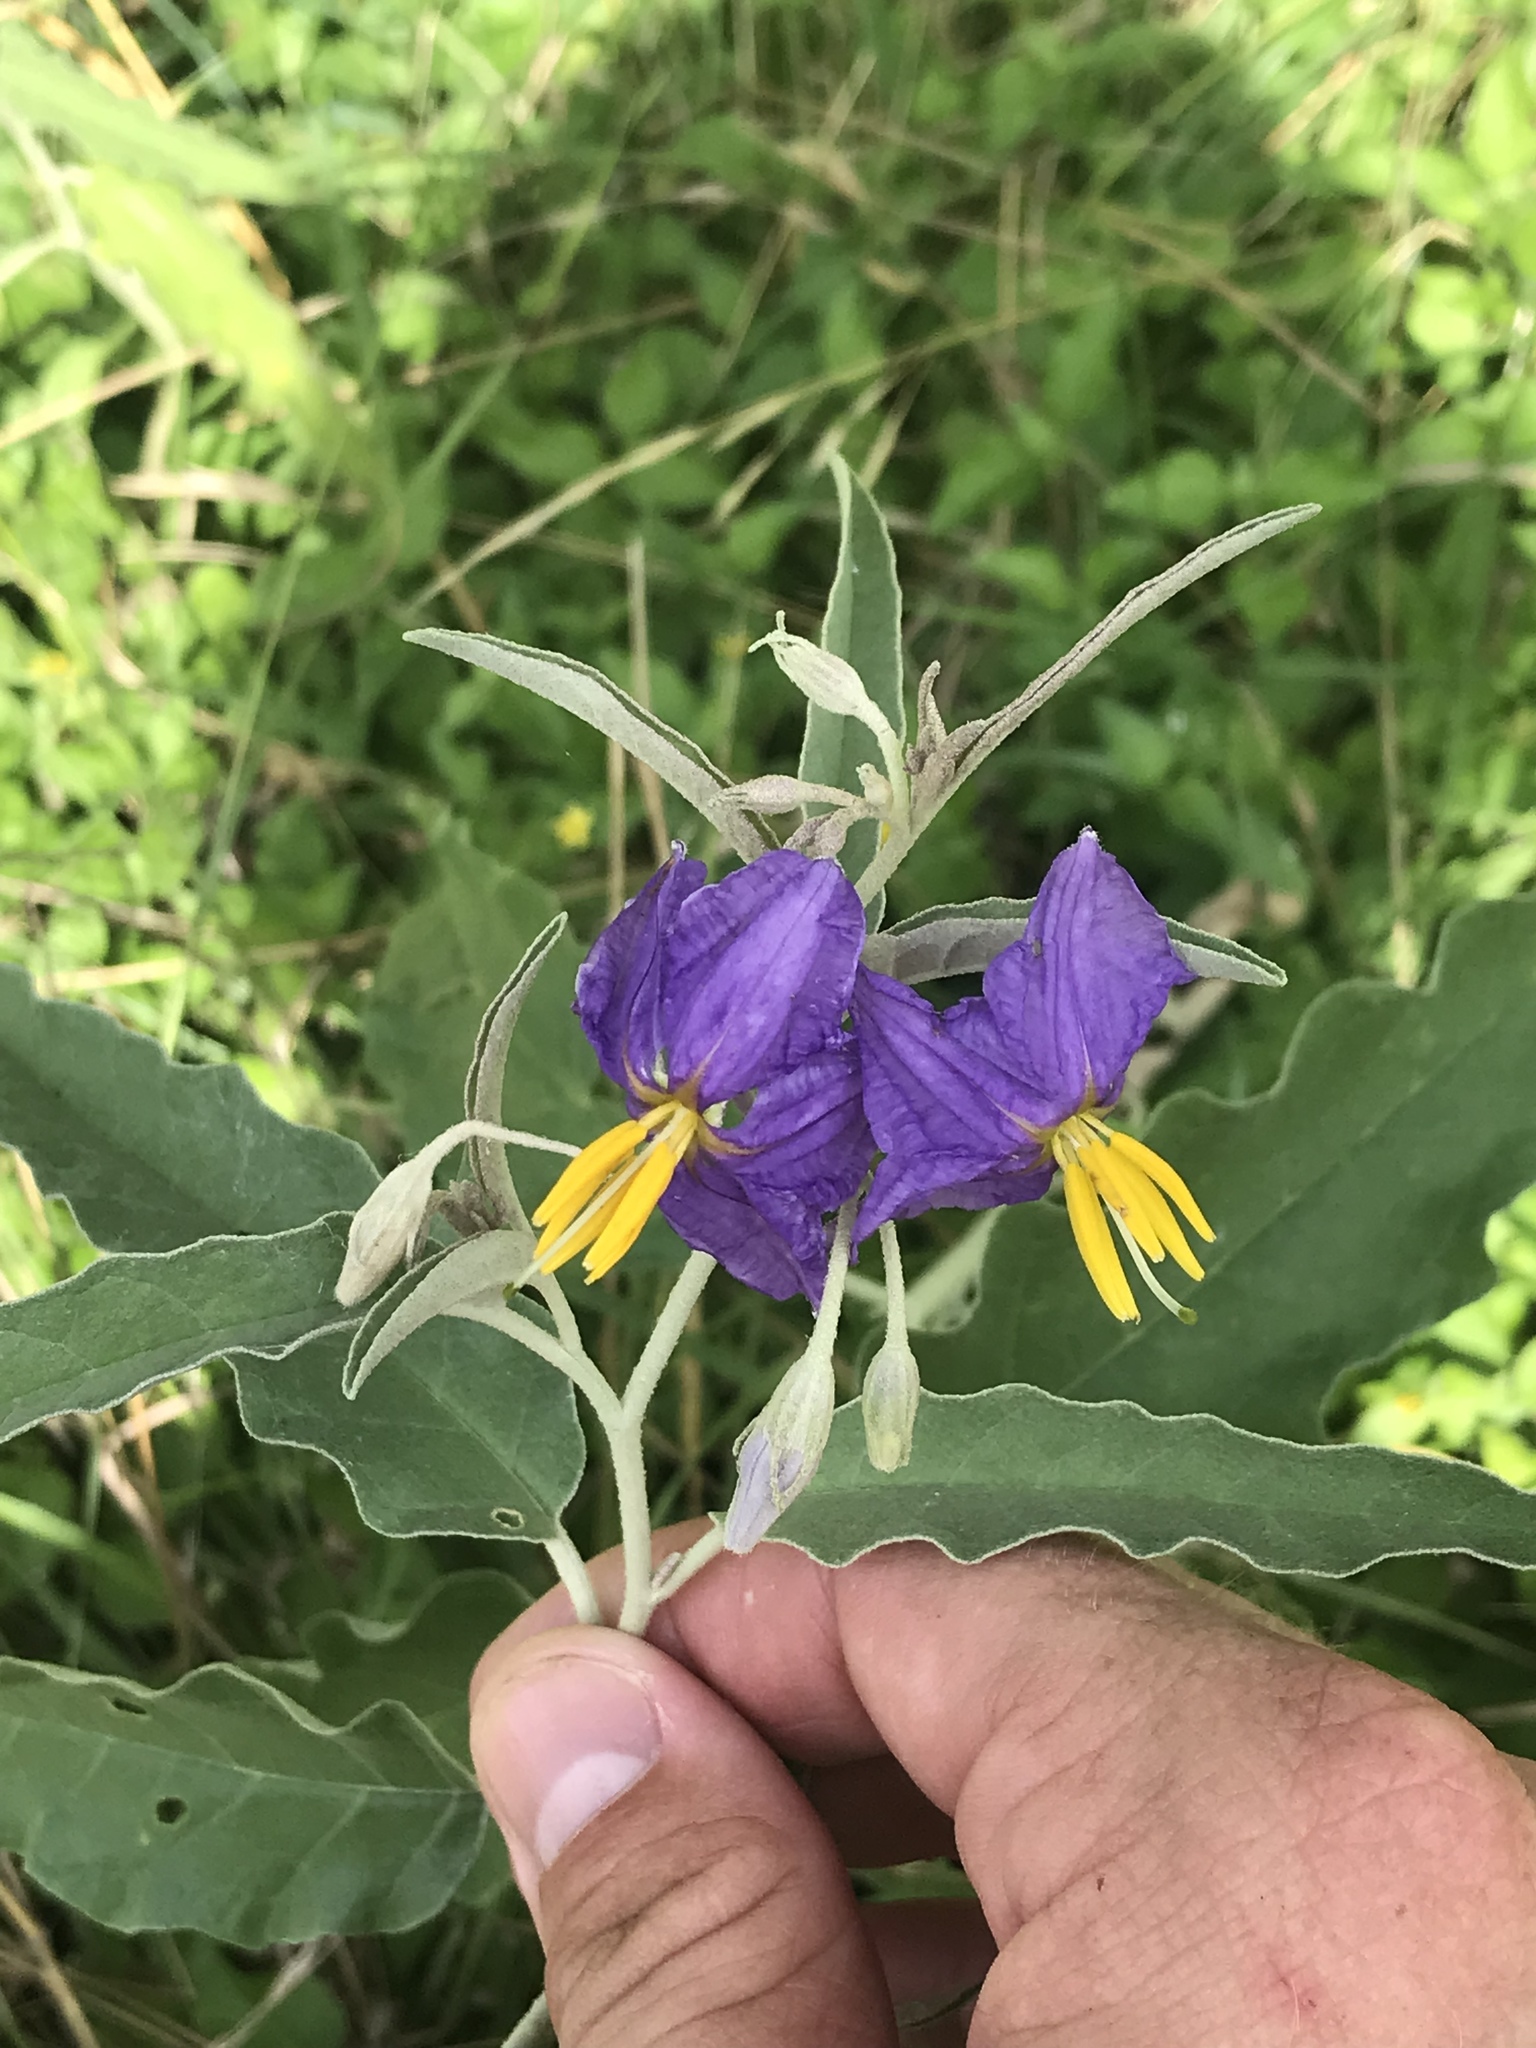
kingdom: Plantae
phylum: Tracheophyta
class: Magnoliopsida
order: Solanales
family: Solanaceae
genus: Solanum
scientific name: Solanum elaeagnifolium
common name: Silverleaf nightshade
